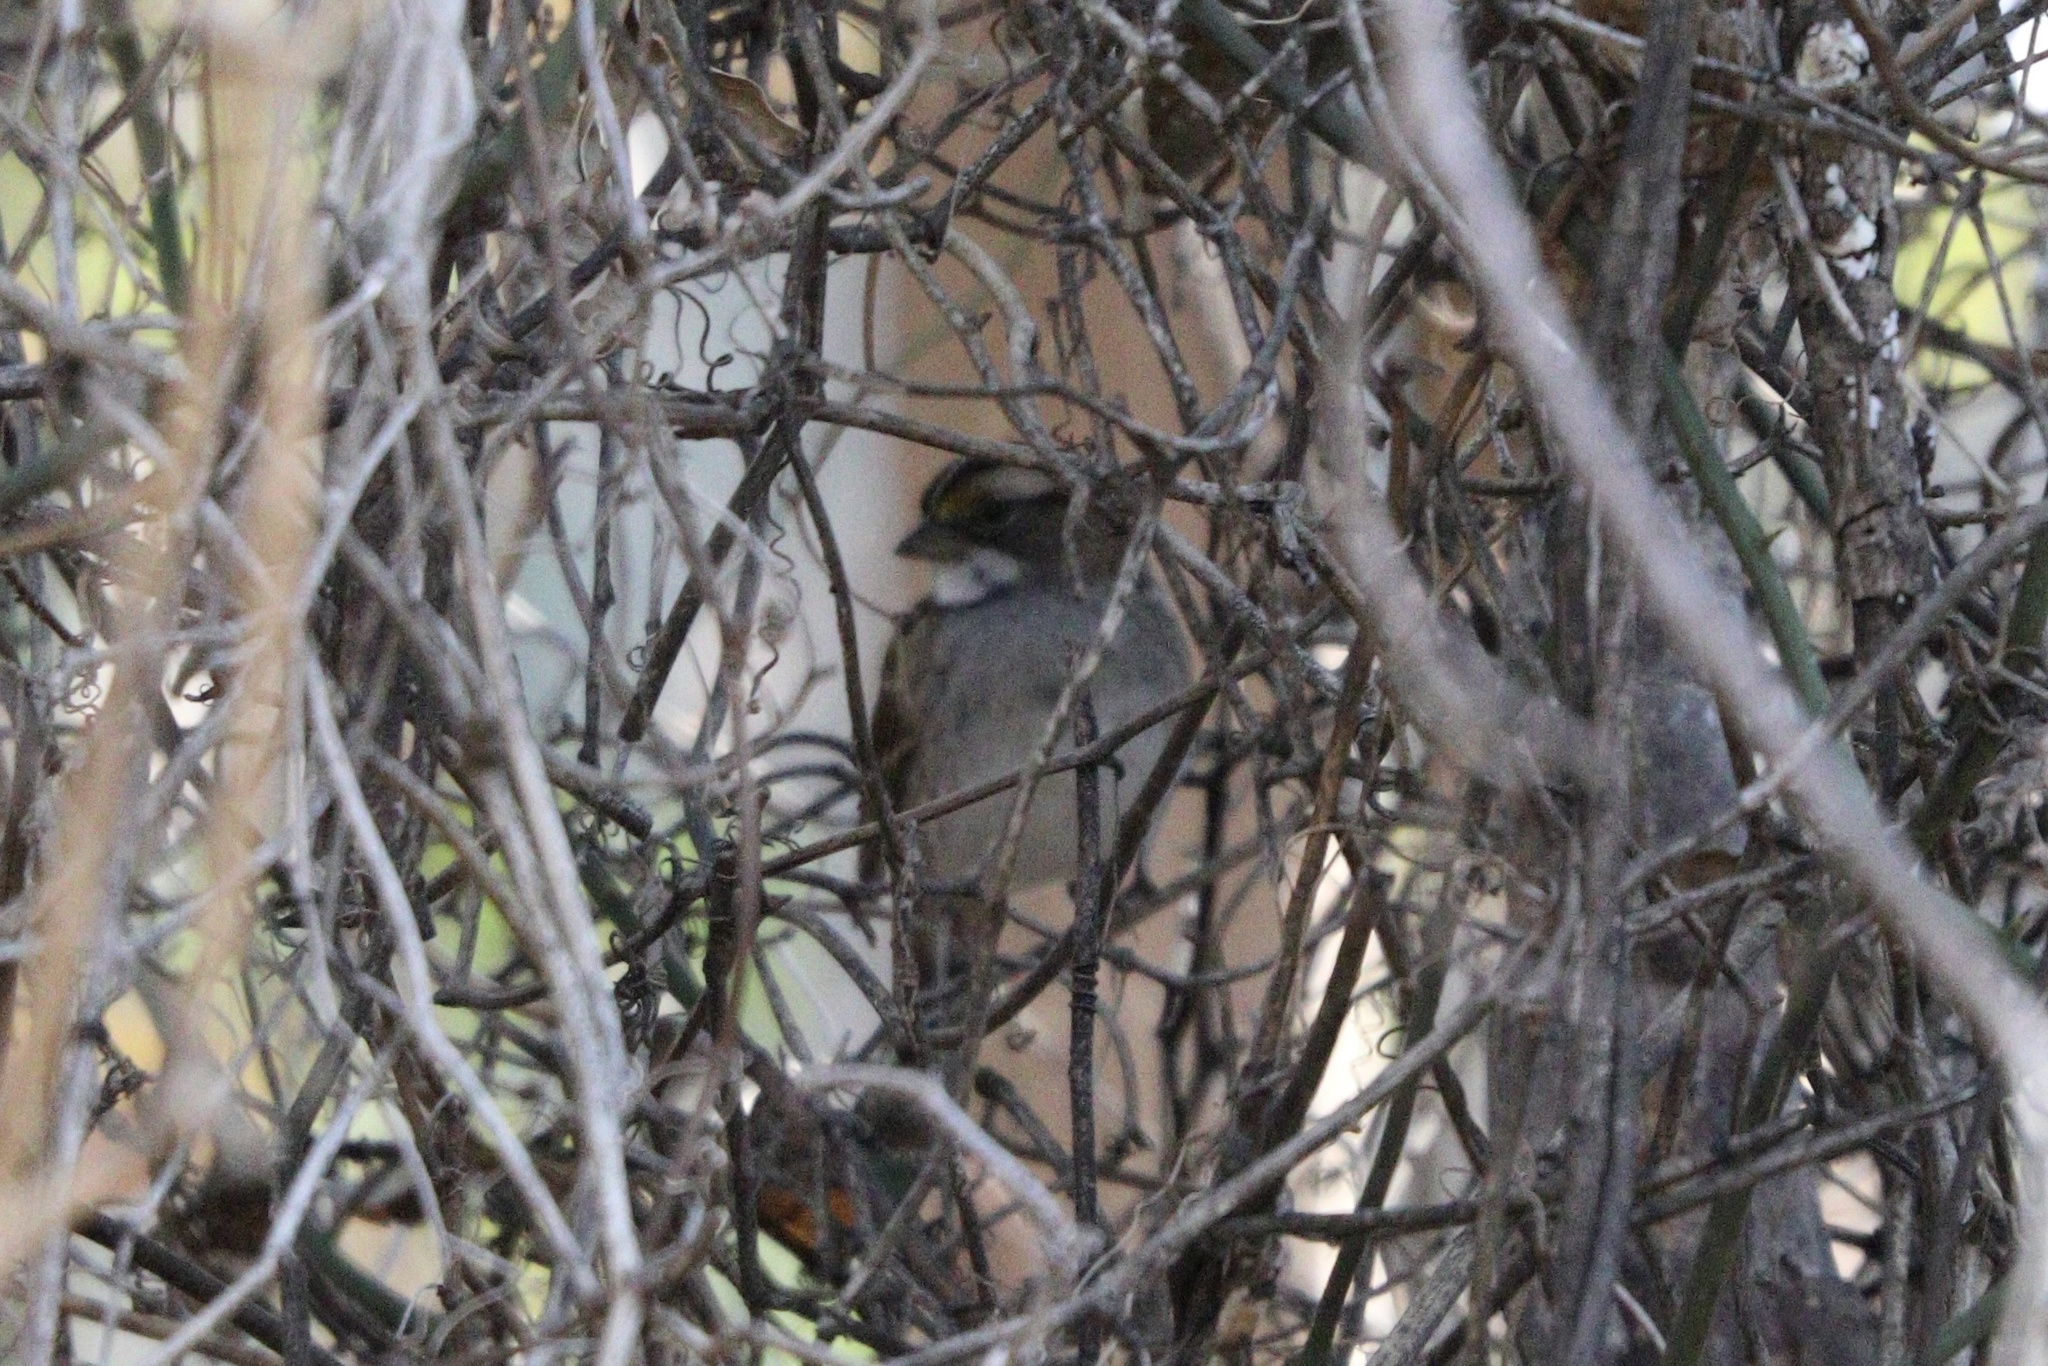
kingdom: Animalia
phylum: Chordata
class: Aves
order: Passeriformes
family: Passerellidae
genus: Zonotrichia
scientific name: Zonotrichia albicollis
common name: White-throated sparrow
